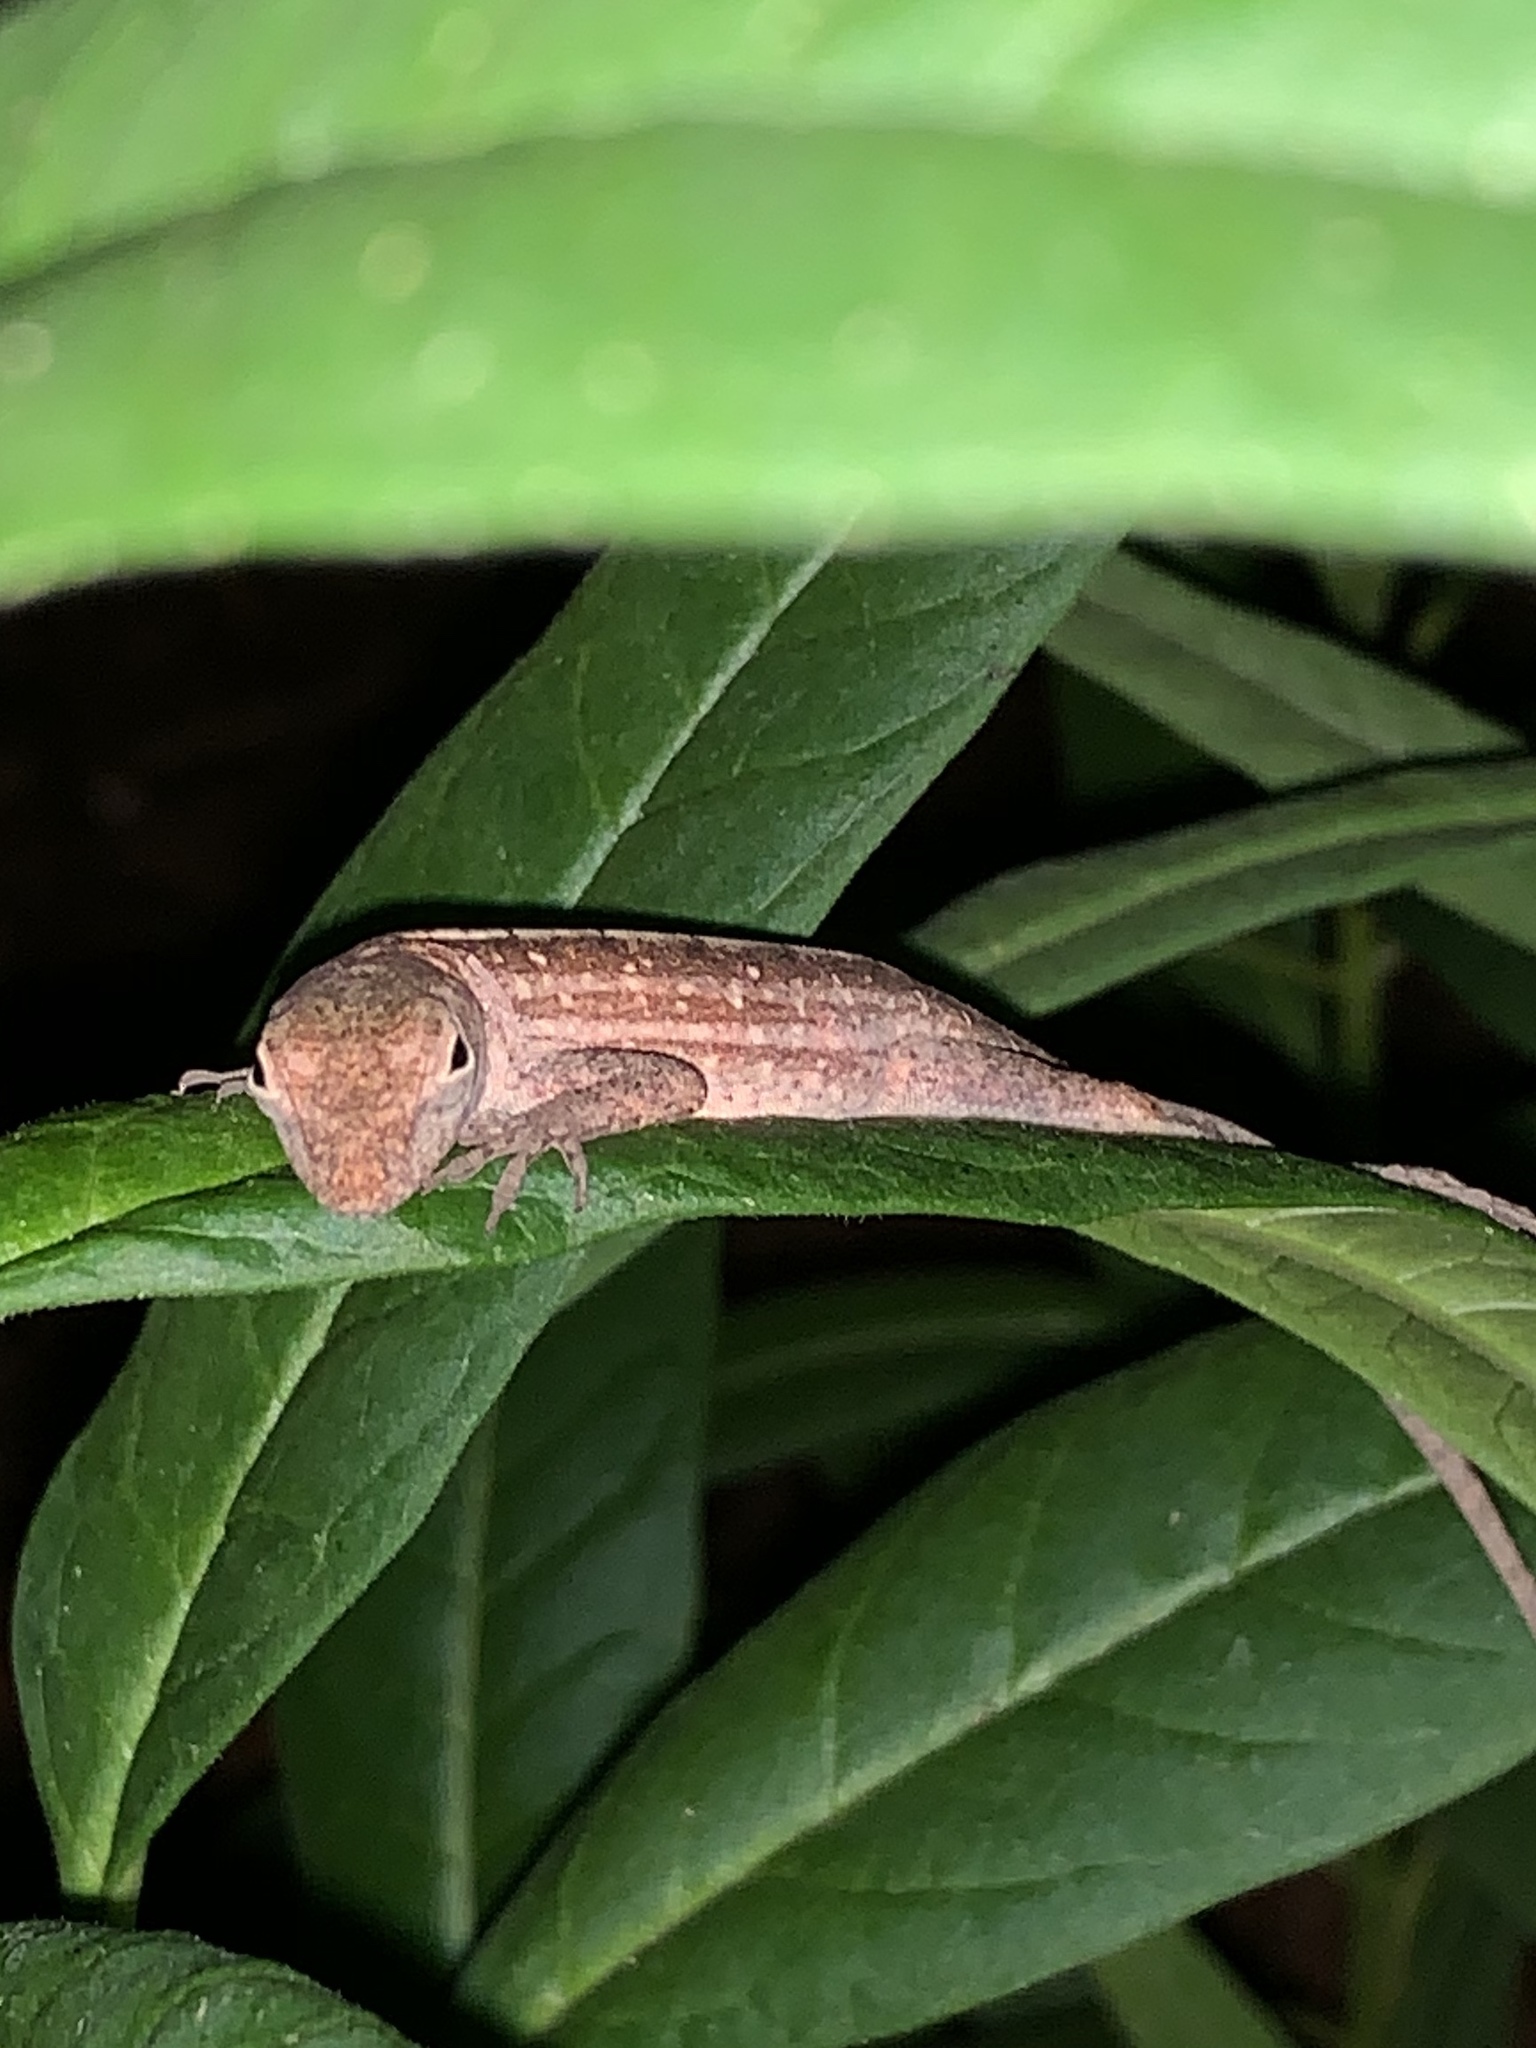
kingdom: Animalia
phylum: Chordata
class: Squamata
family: Dactyloidae
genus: Anolis
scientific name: Anolis sagrei
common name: Brown anole
